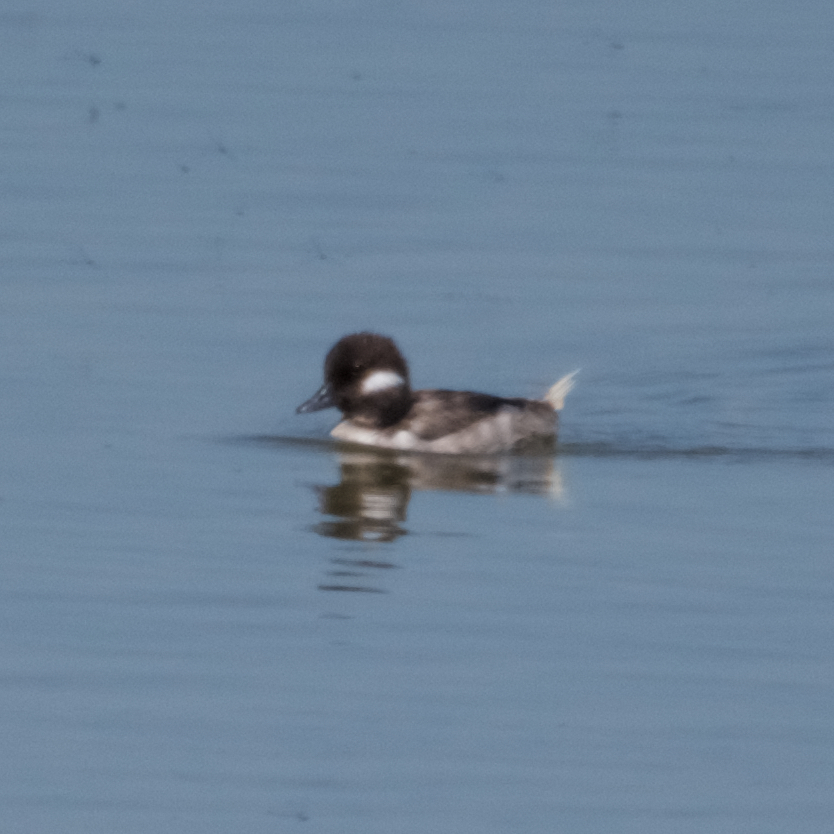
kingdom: Animalia
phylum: Chordata
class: Aves
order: Anseriformes
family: Anatidae
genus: Bucephala
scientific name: Bucephala albeola
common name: Bufflehead
